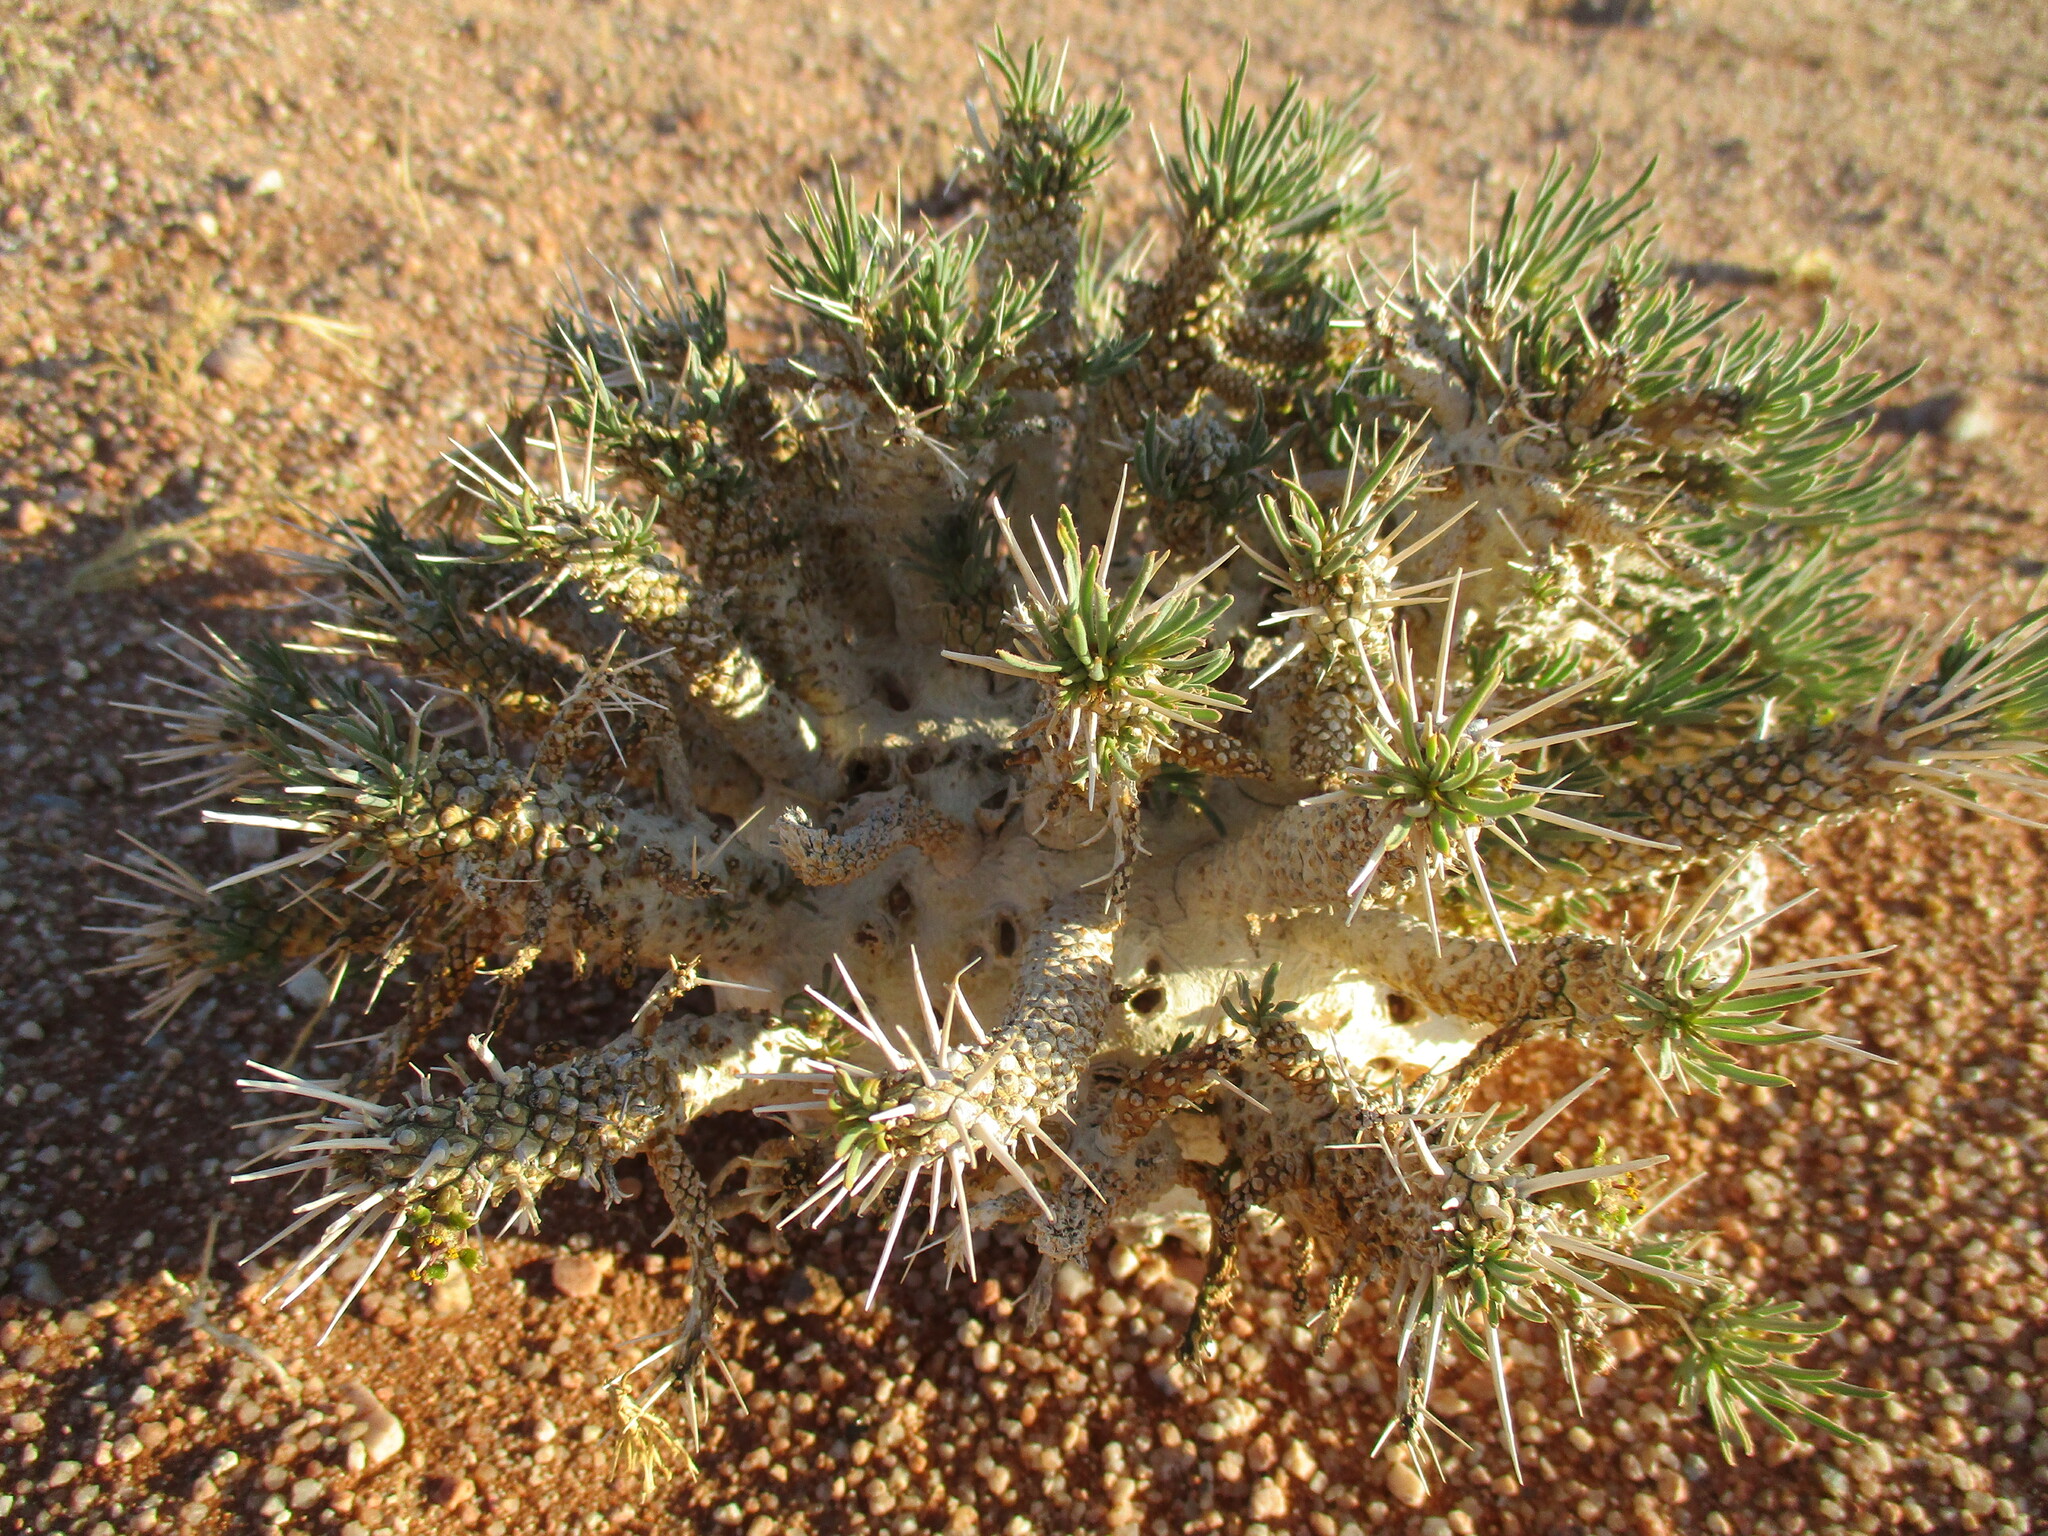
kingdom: Plantae
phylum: Tracheophyta
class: Magnoliopsida
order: Malpighiales
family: Euphorbiaceae
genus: Euphorbia
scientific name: Euphorbia namibensis
